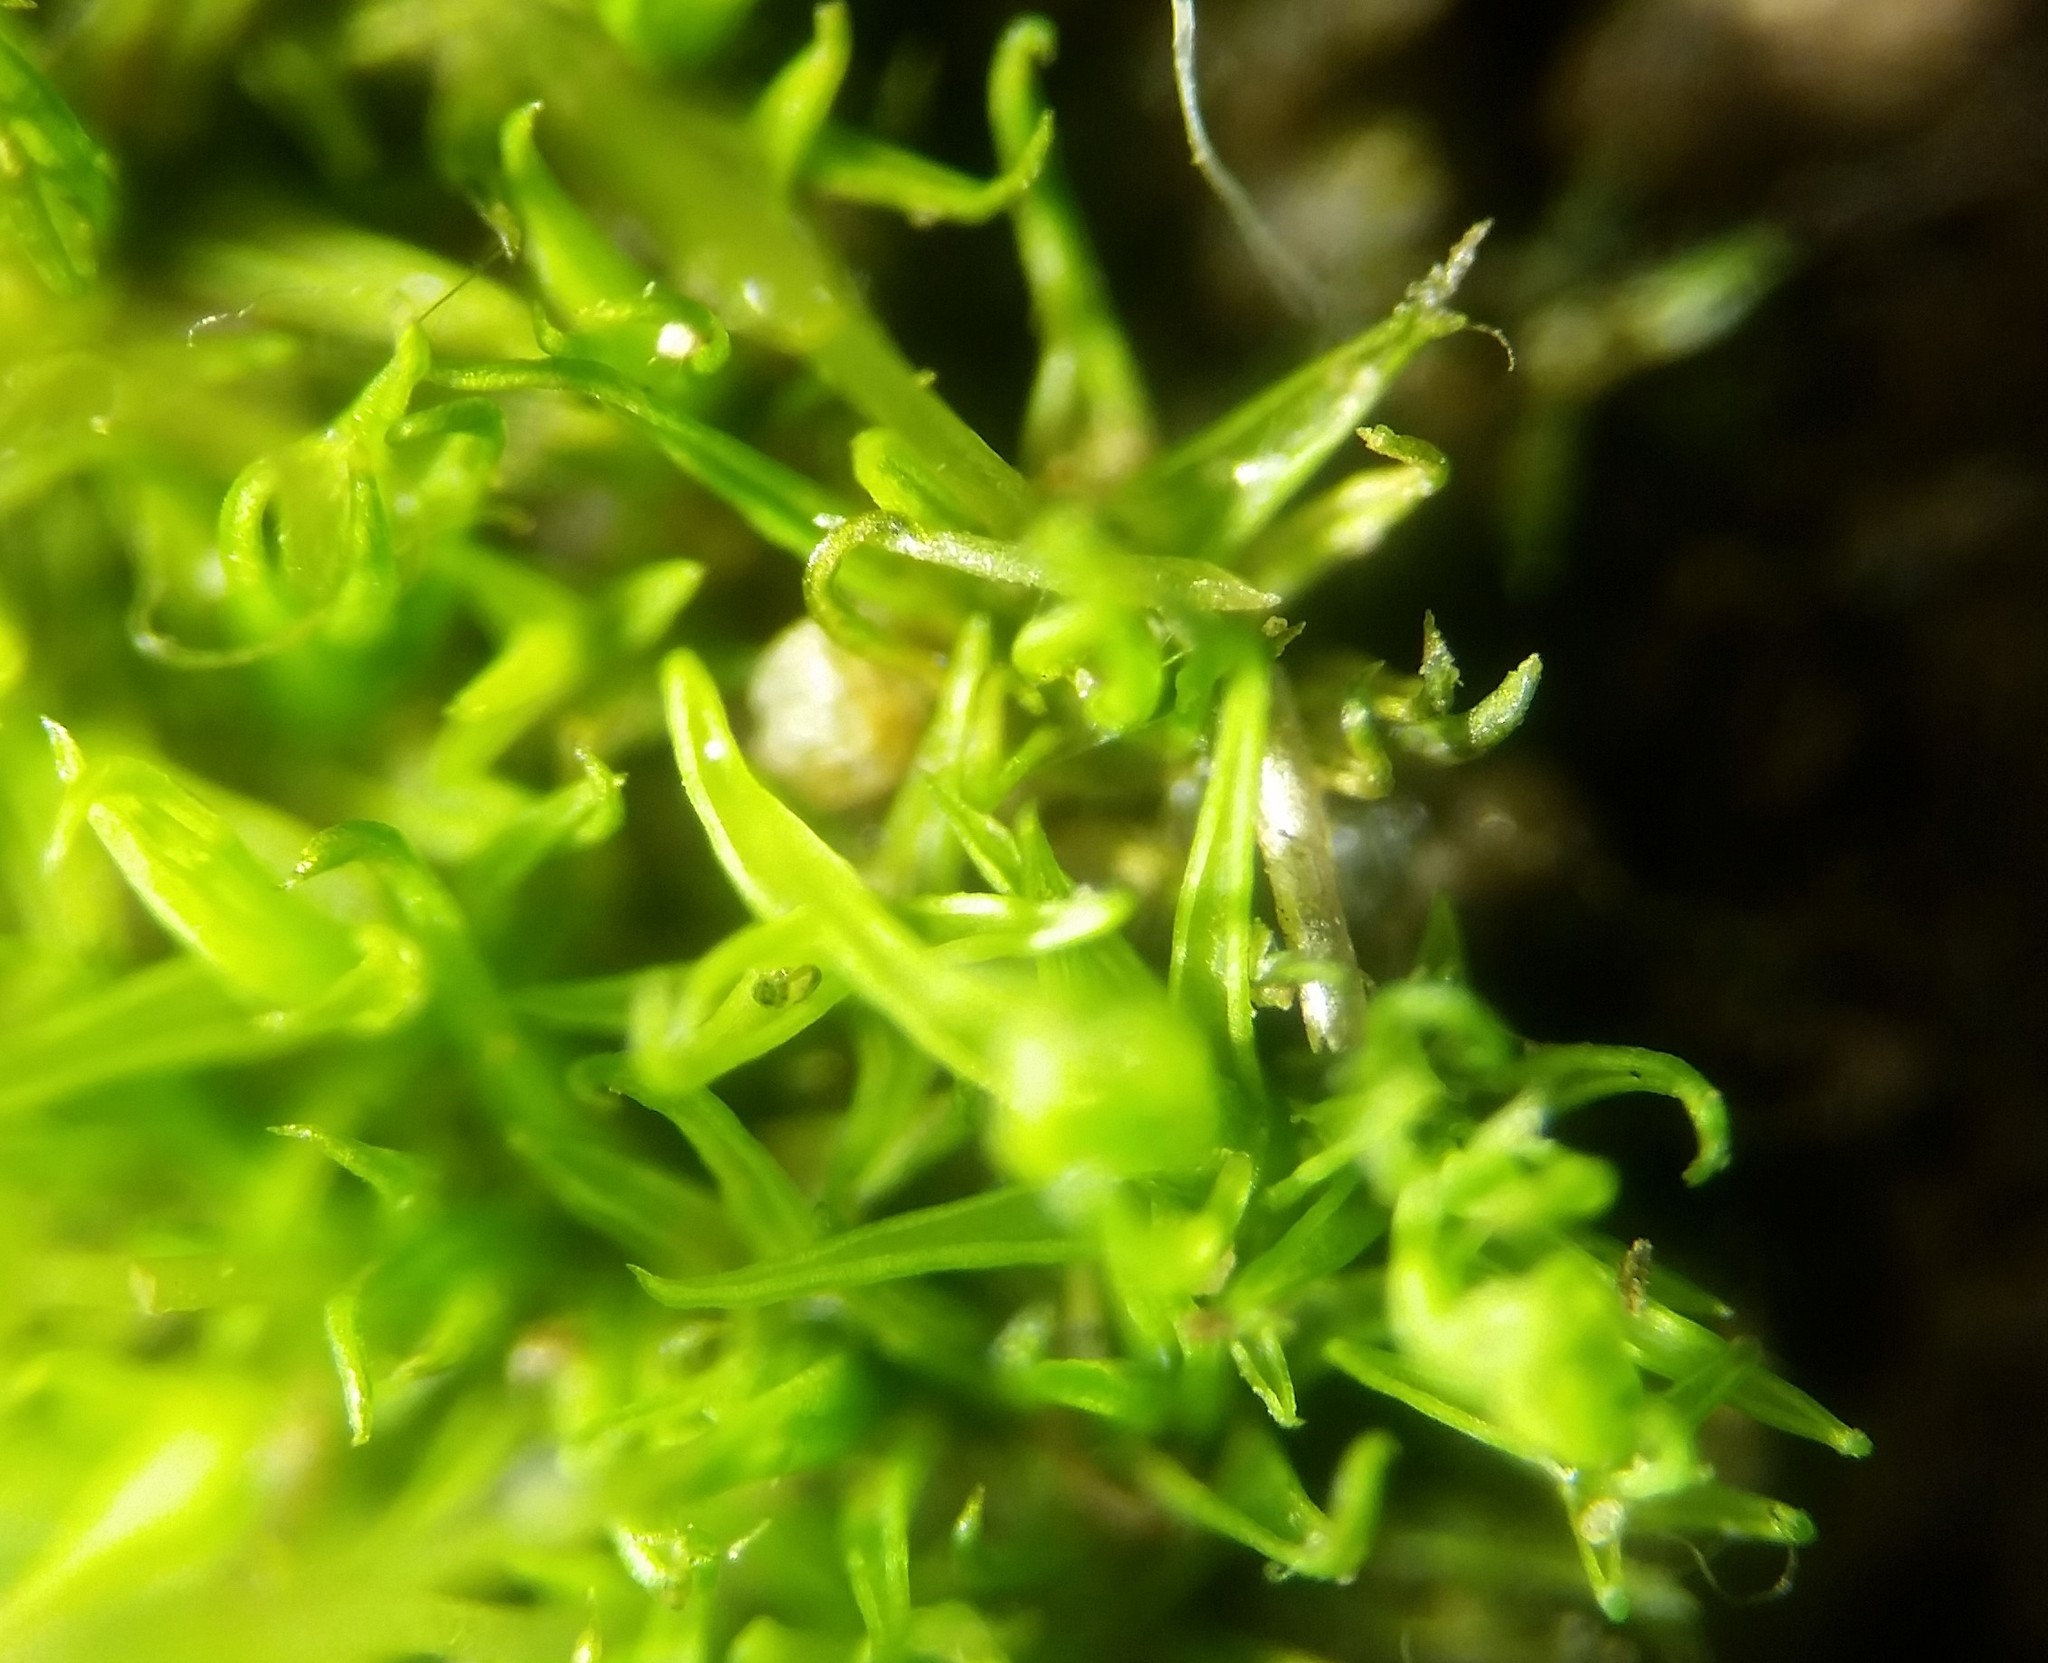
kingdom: Plantae
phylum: Bryophyta
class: Bryopsida
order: Pottiales
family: Pottiaceae
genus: Weissia
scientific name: Weissia controversa
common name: Green-tufted stubble moss
